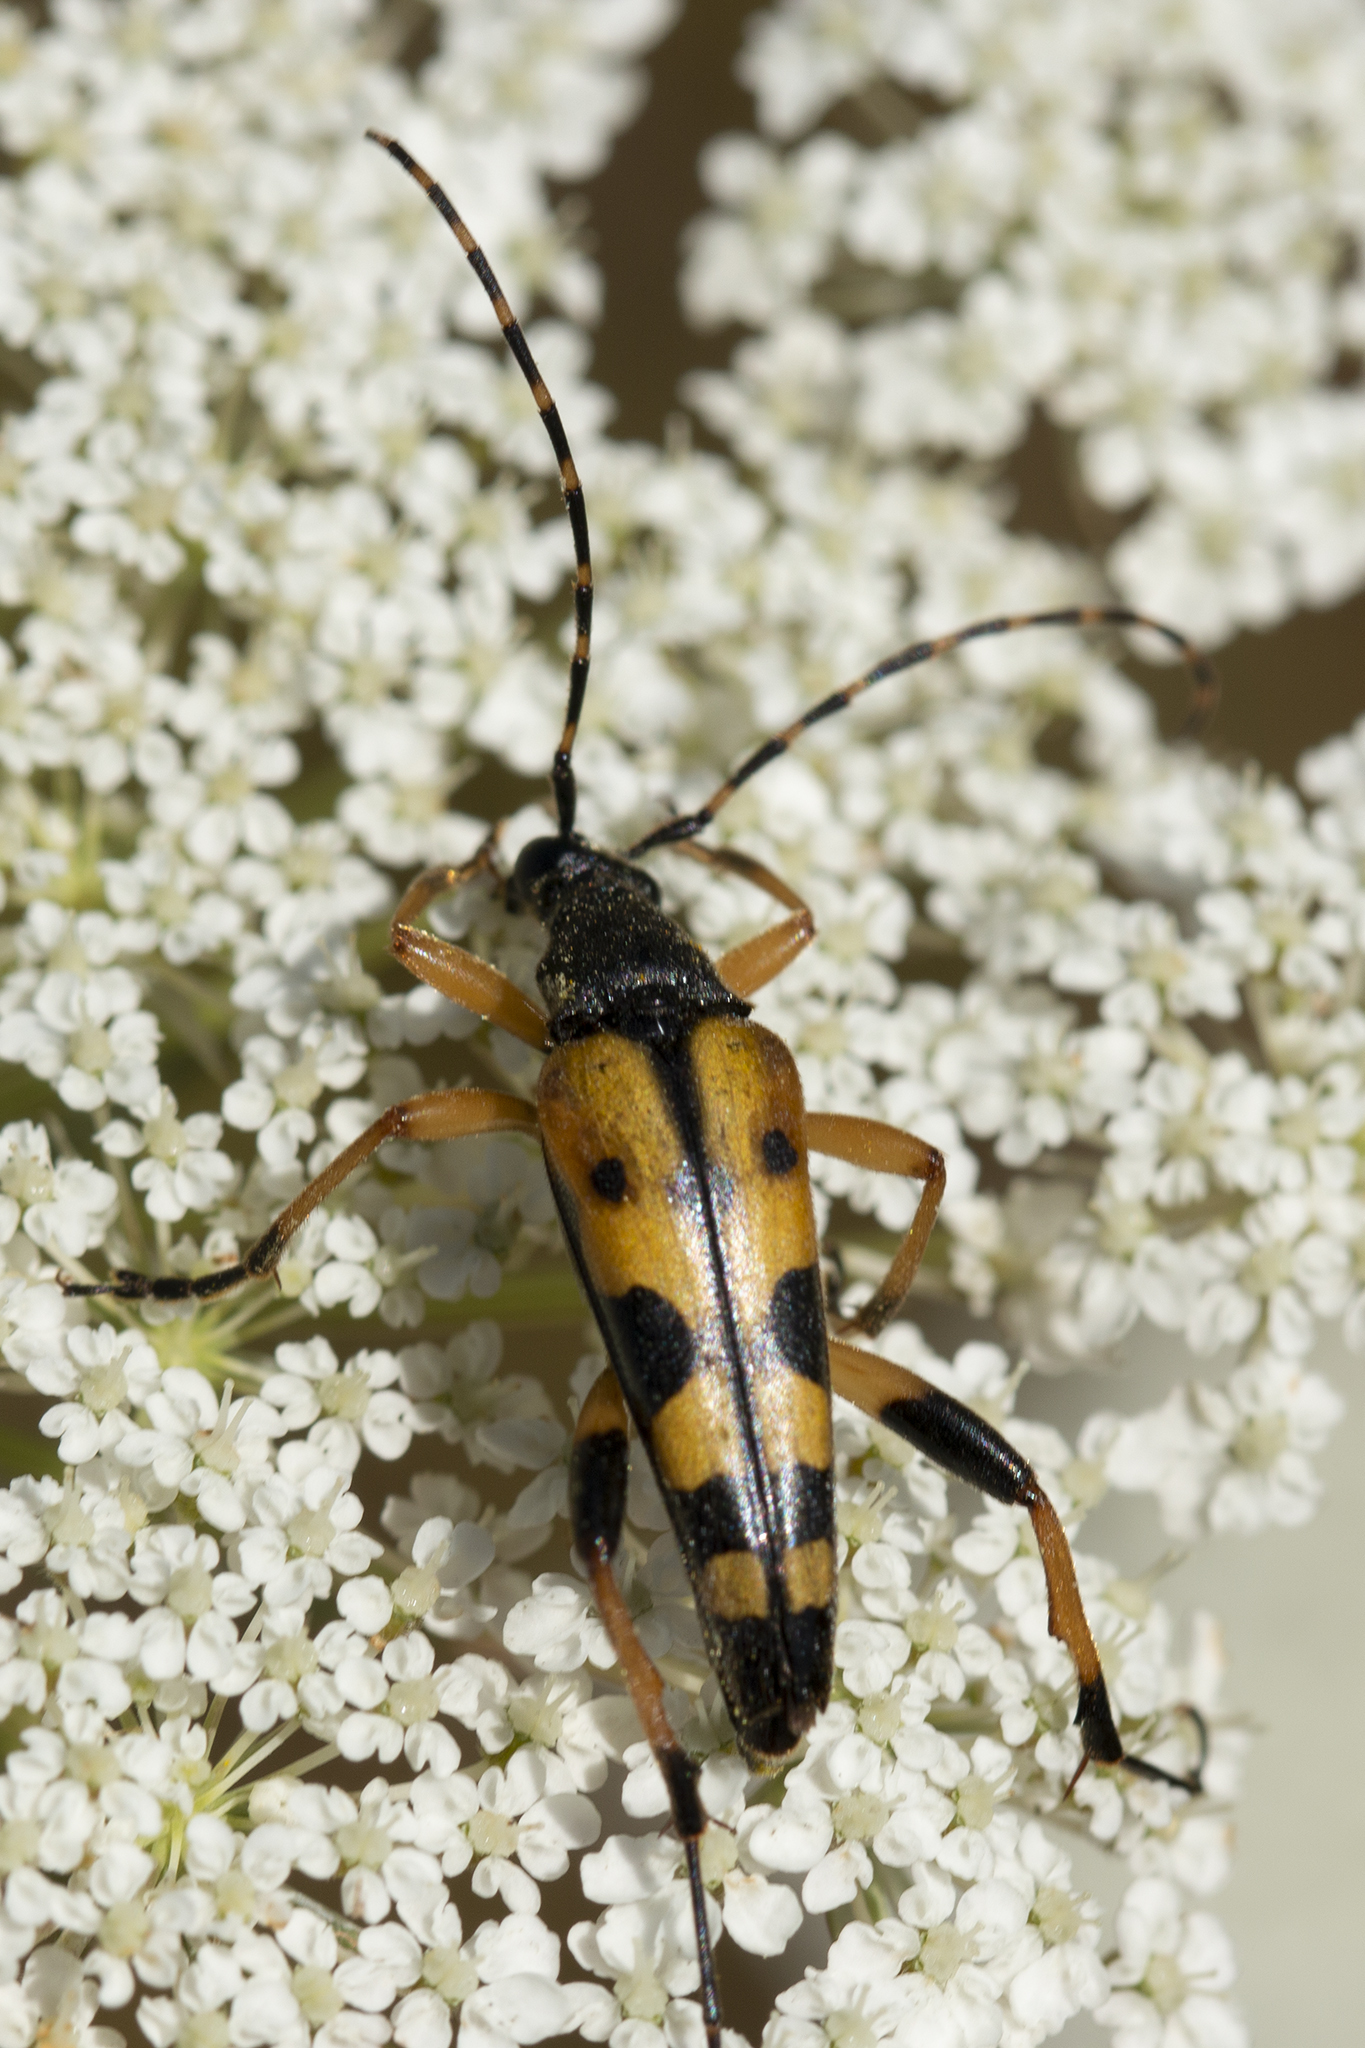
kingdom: Animalia
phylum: Arthropoda
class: Insecta
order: Coleoptera
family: Cerambycidae
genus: Rutpela
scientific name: Rutpela maculata
